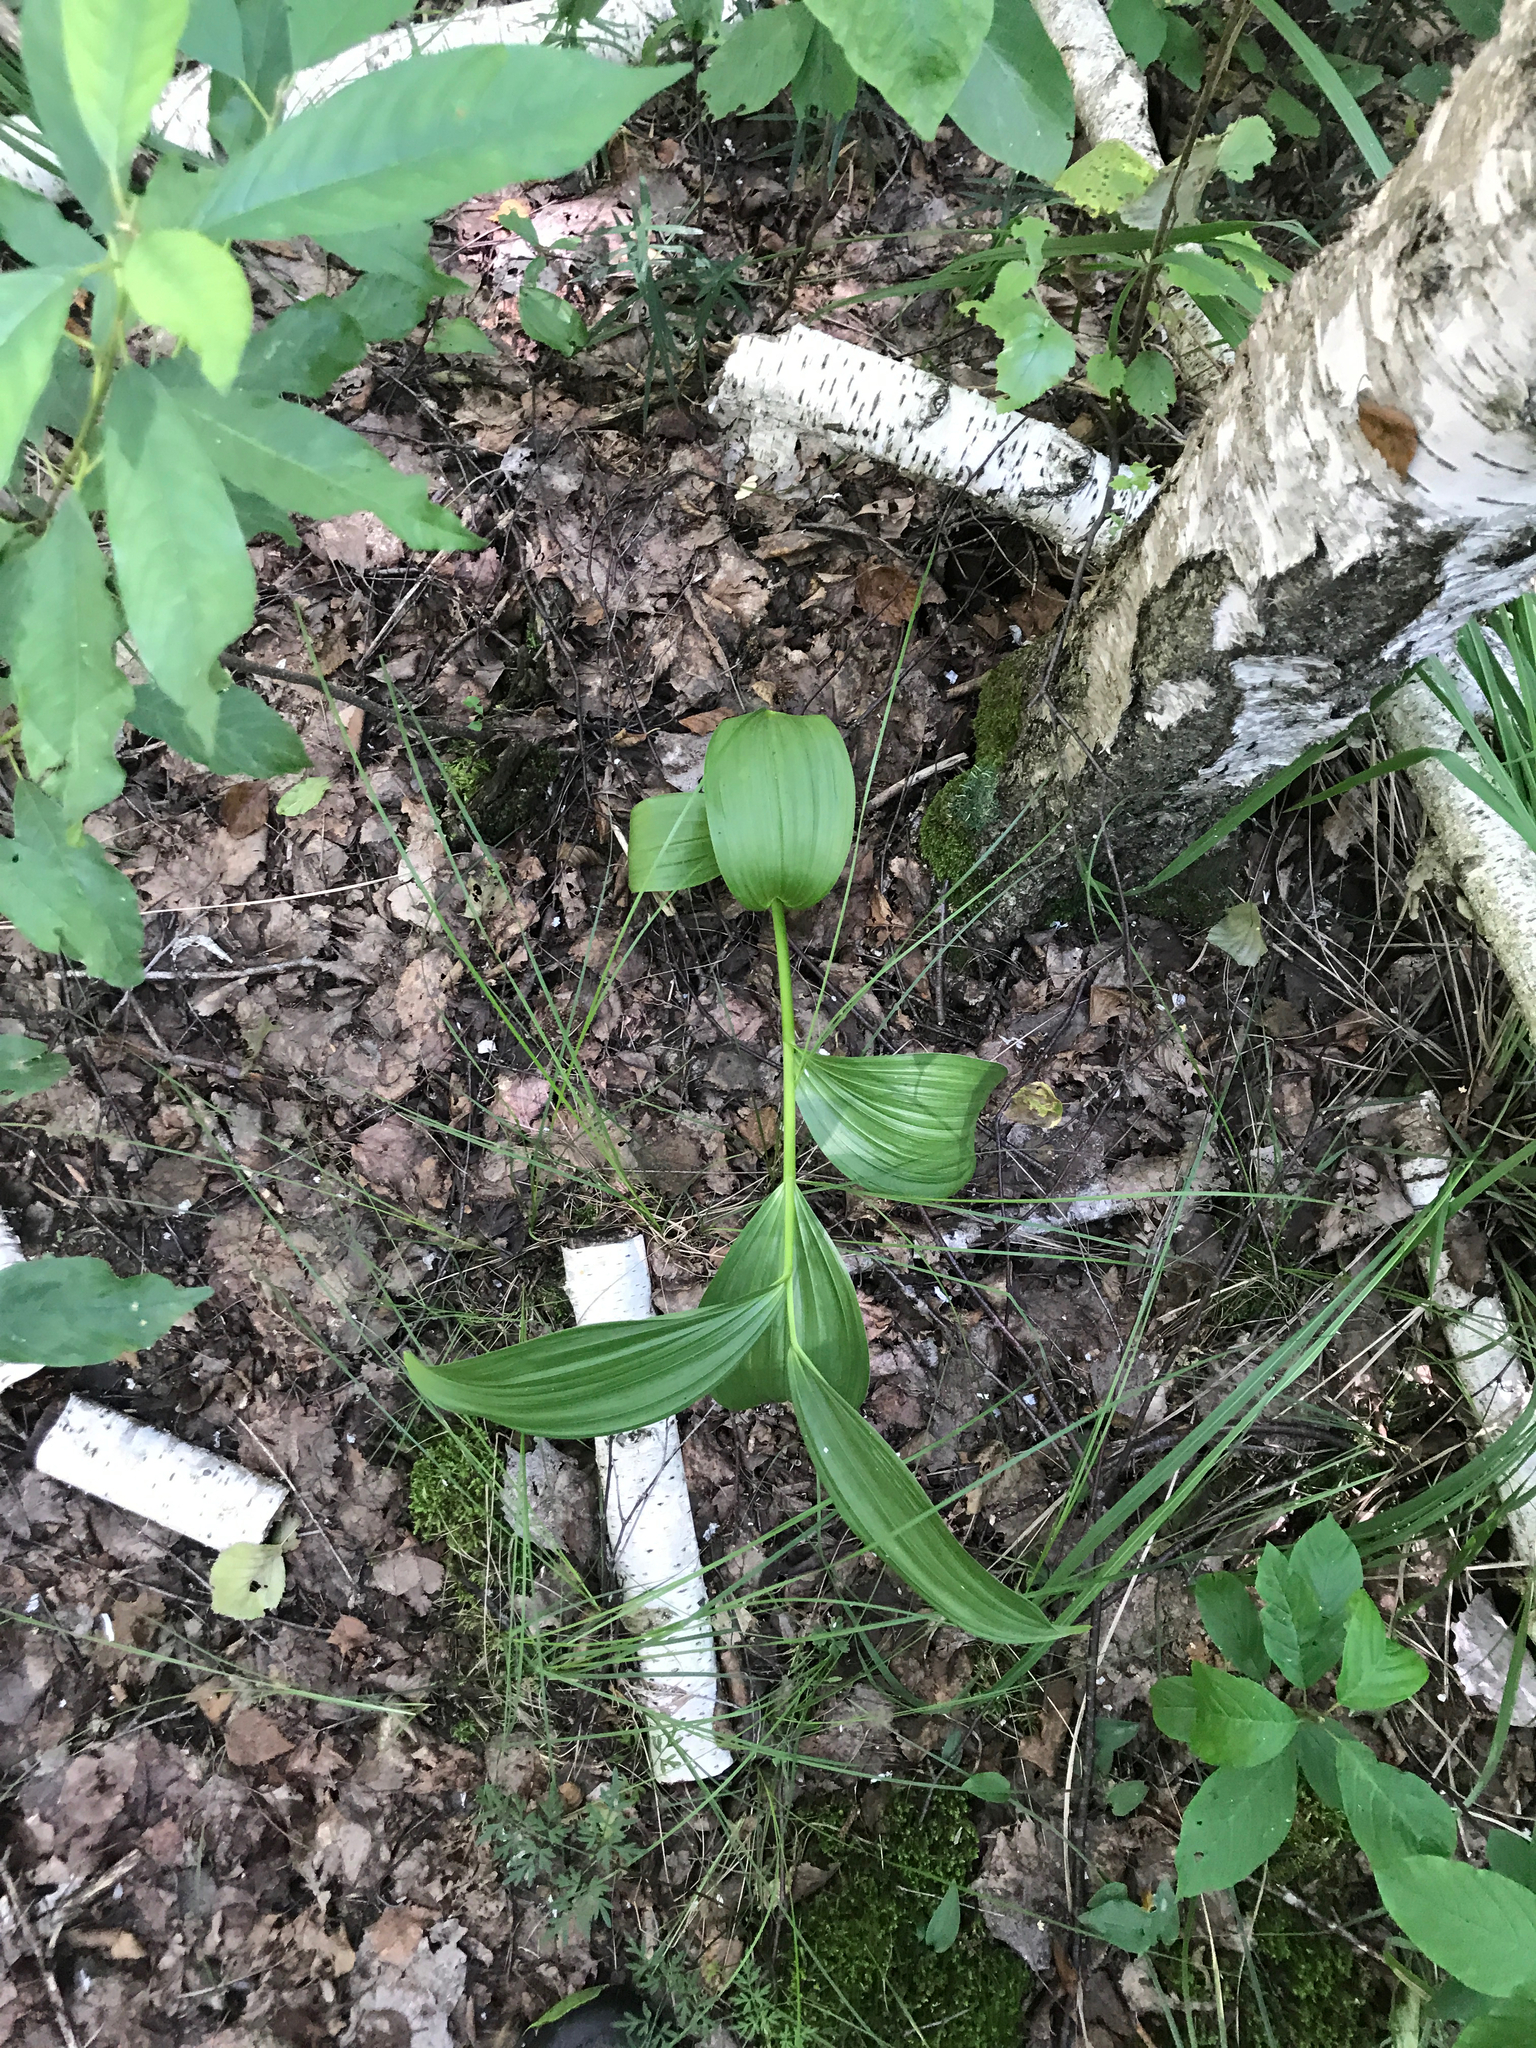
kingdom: Plantae
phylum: Tracheophyta
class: Liliopsida
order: Liliales
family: Melanthiaceae
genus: Veratrum
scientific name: Veratrum lobelianum
